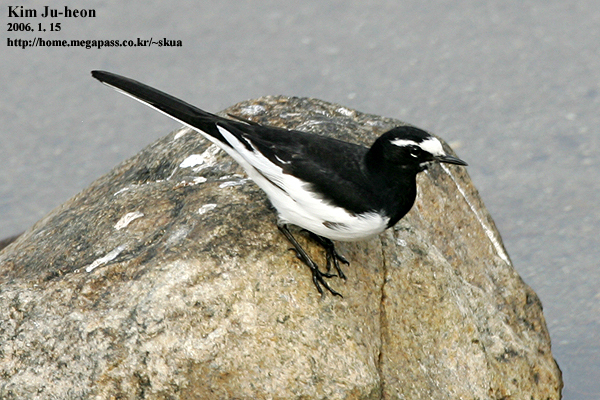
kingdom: Animalia
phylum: Chordata
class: Aves
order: Passeriformes
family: Motacillidae
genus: Motacilla
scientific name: Motacilla grandis
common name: Japanese wagtail
